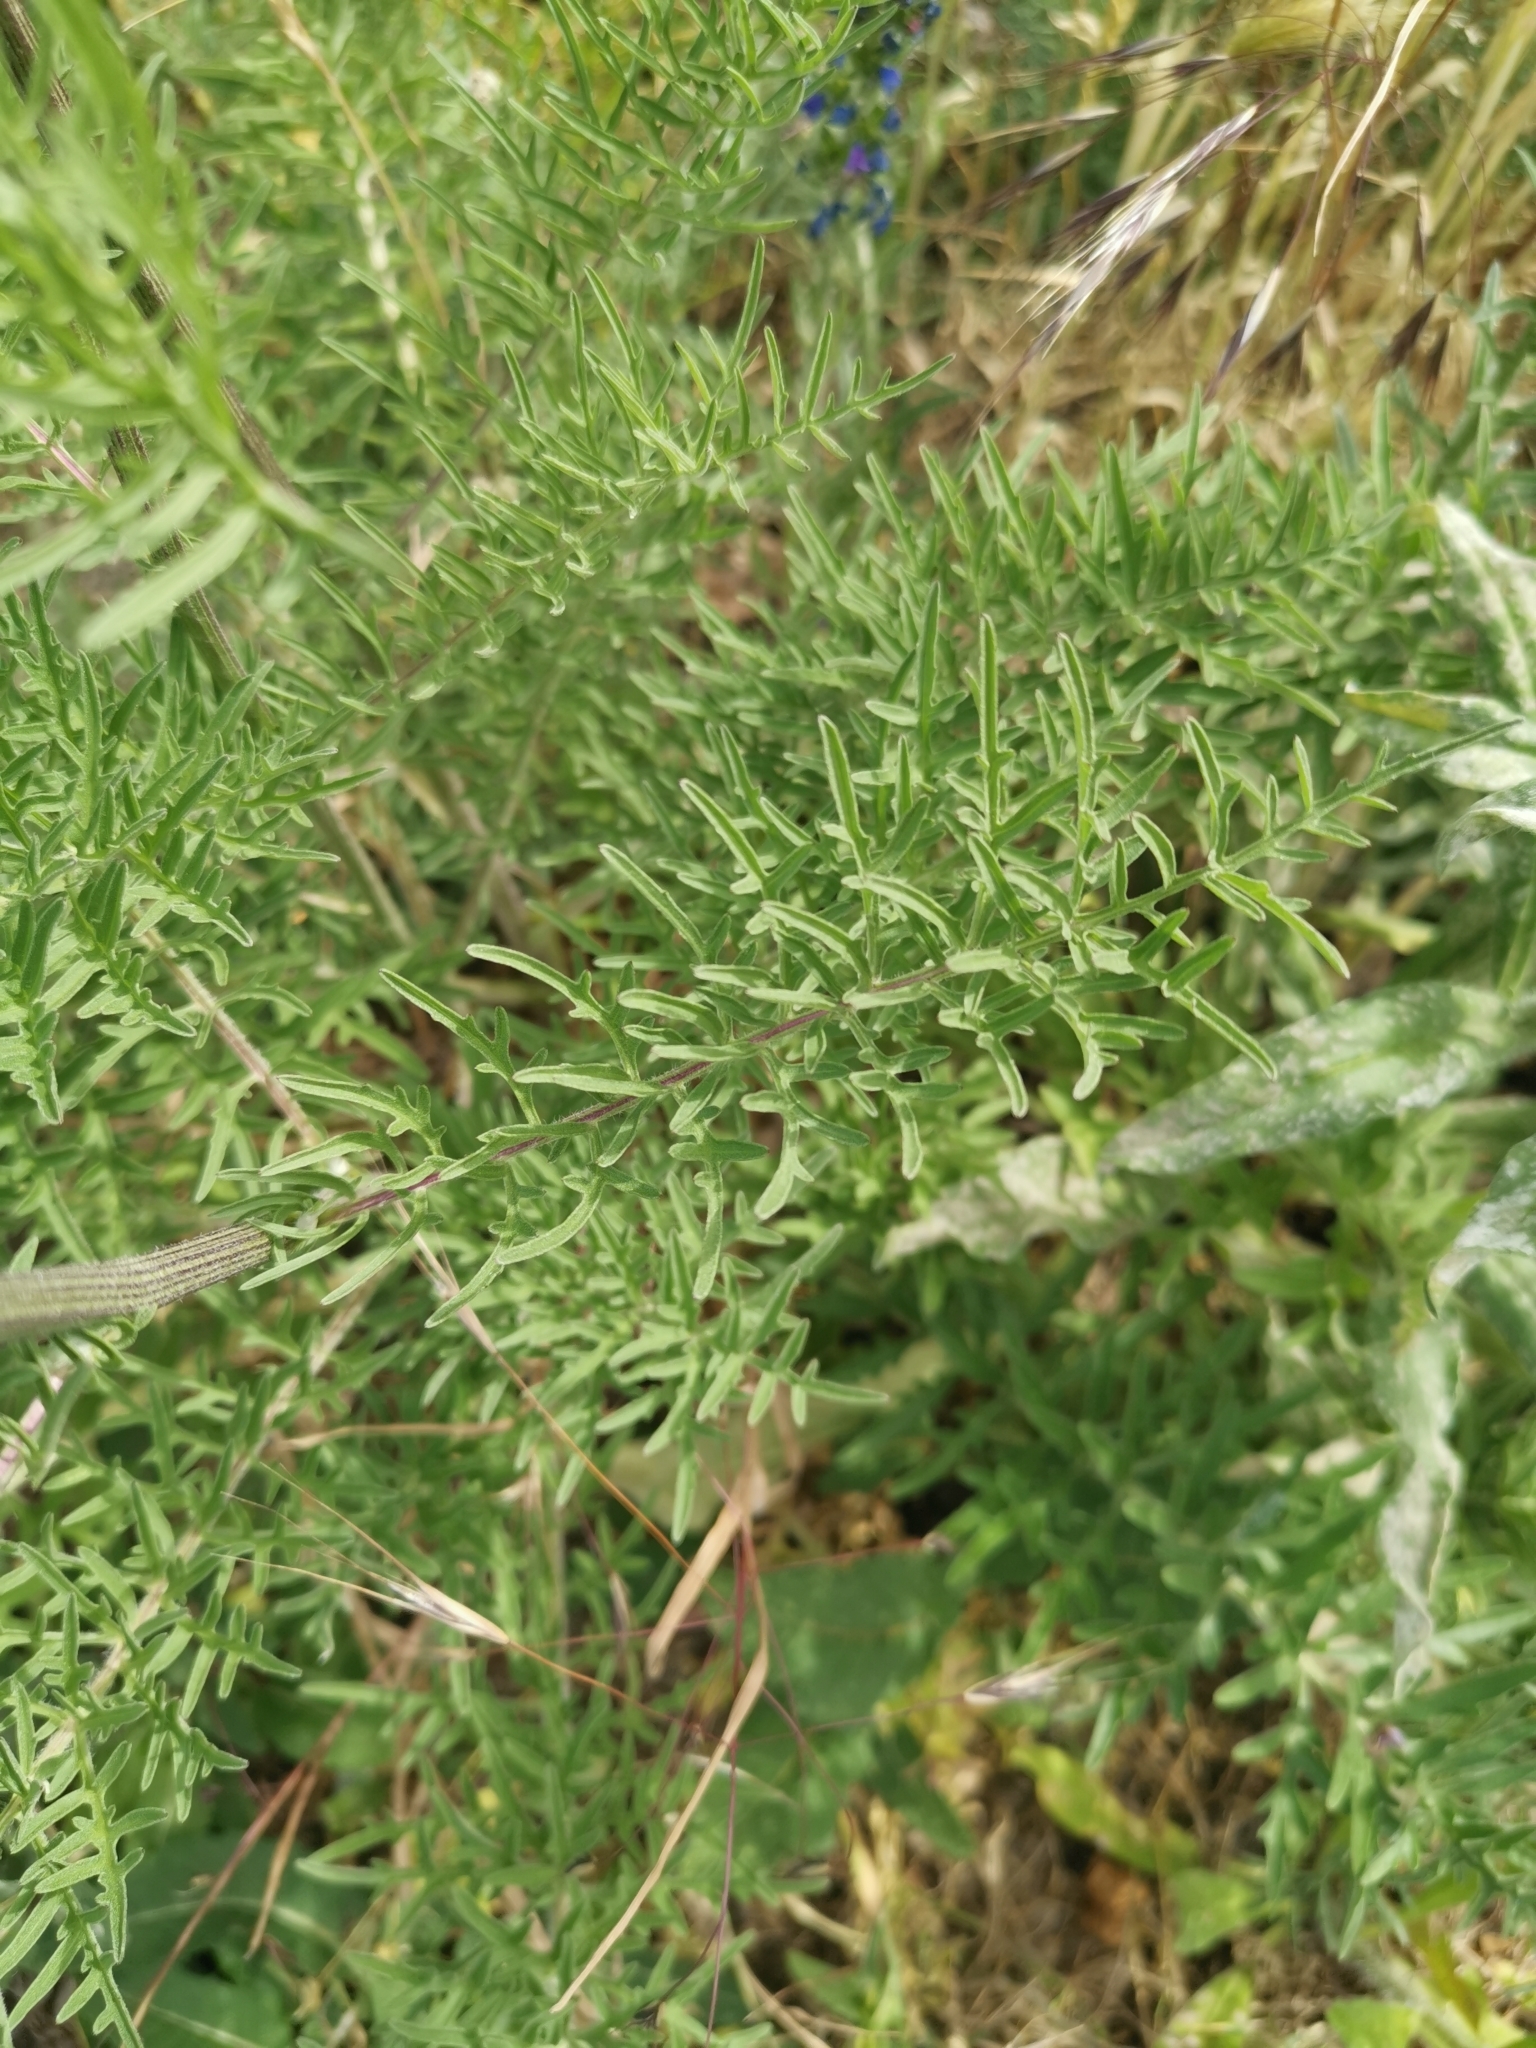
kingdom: Plantae
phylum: Tracheophyta
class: Magnoliopsida
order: Asterales
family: Asteraceae
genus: Centaurea
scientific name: Centaurea scabiosa
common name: Greater knapweed
